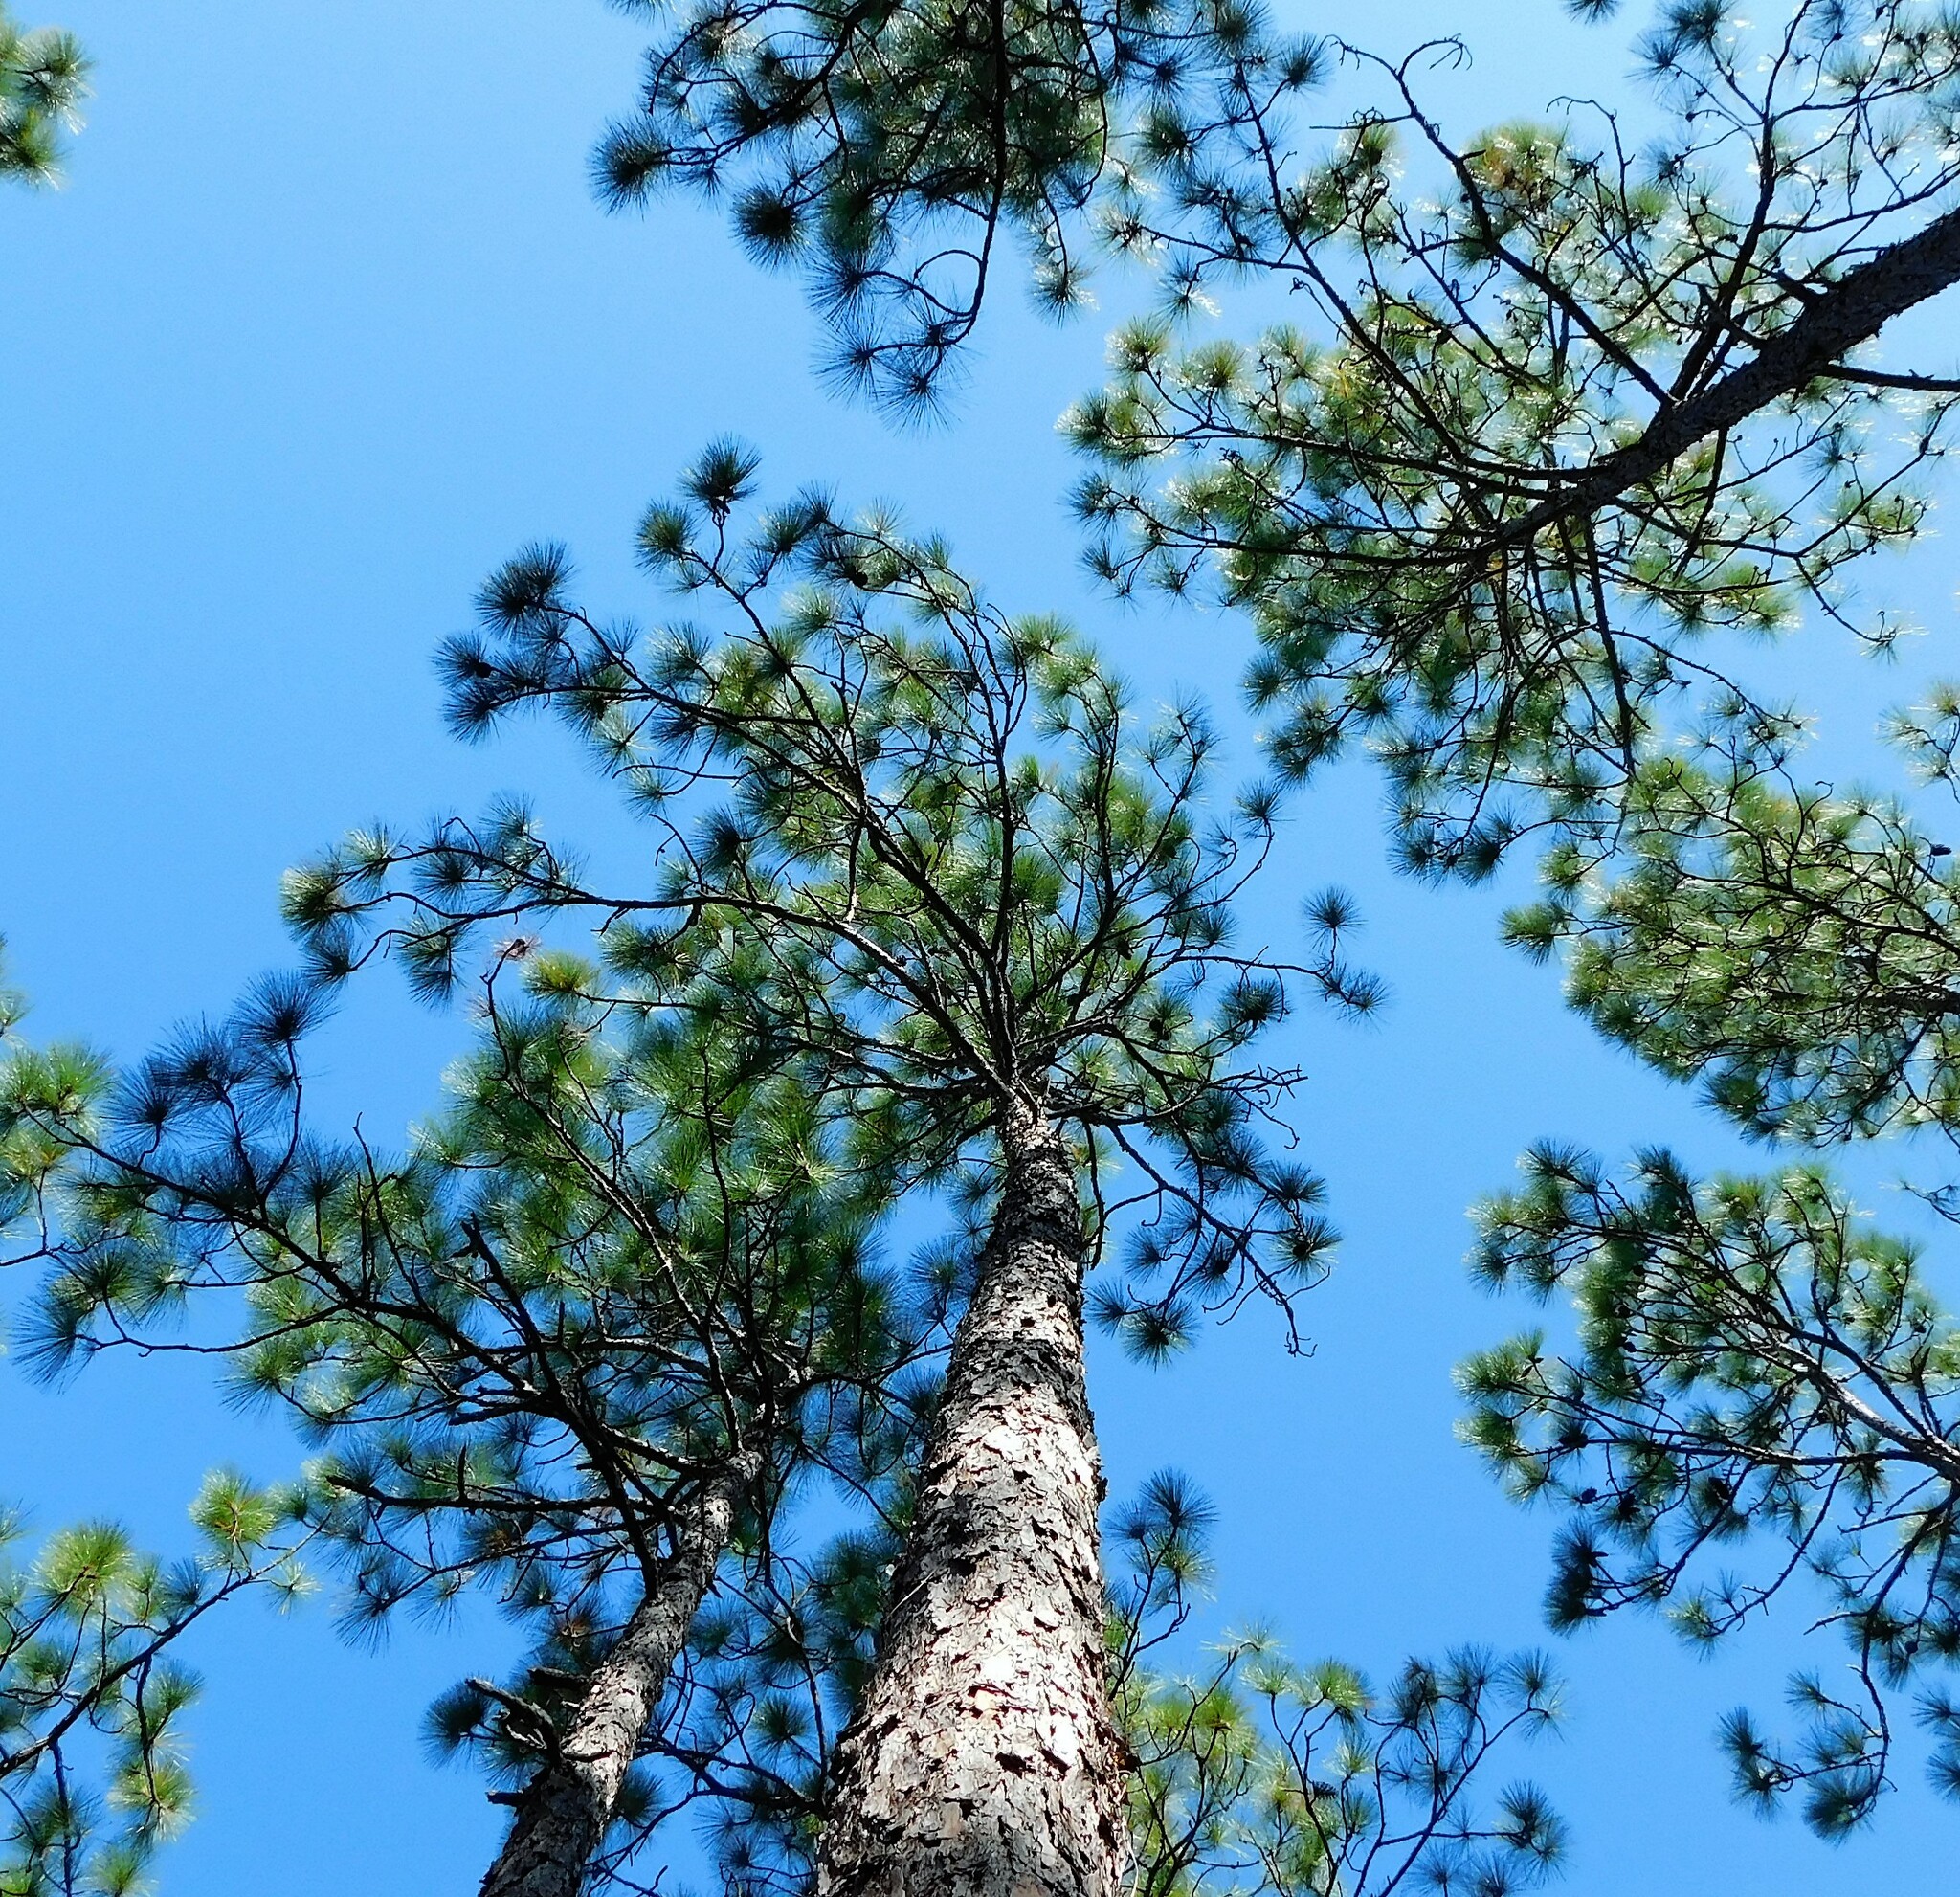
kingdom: Plantae
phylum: Tracheophyta
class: Pinopsida
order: Pinales
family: Pinaceae
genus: Pinus
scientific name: Pinus palustris
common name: Longleaf pine
